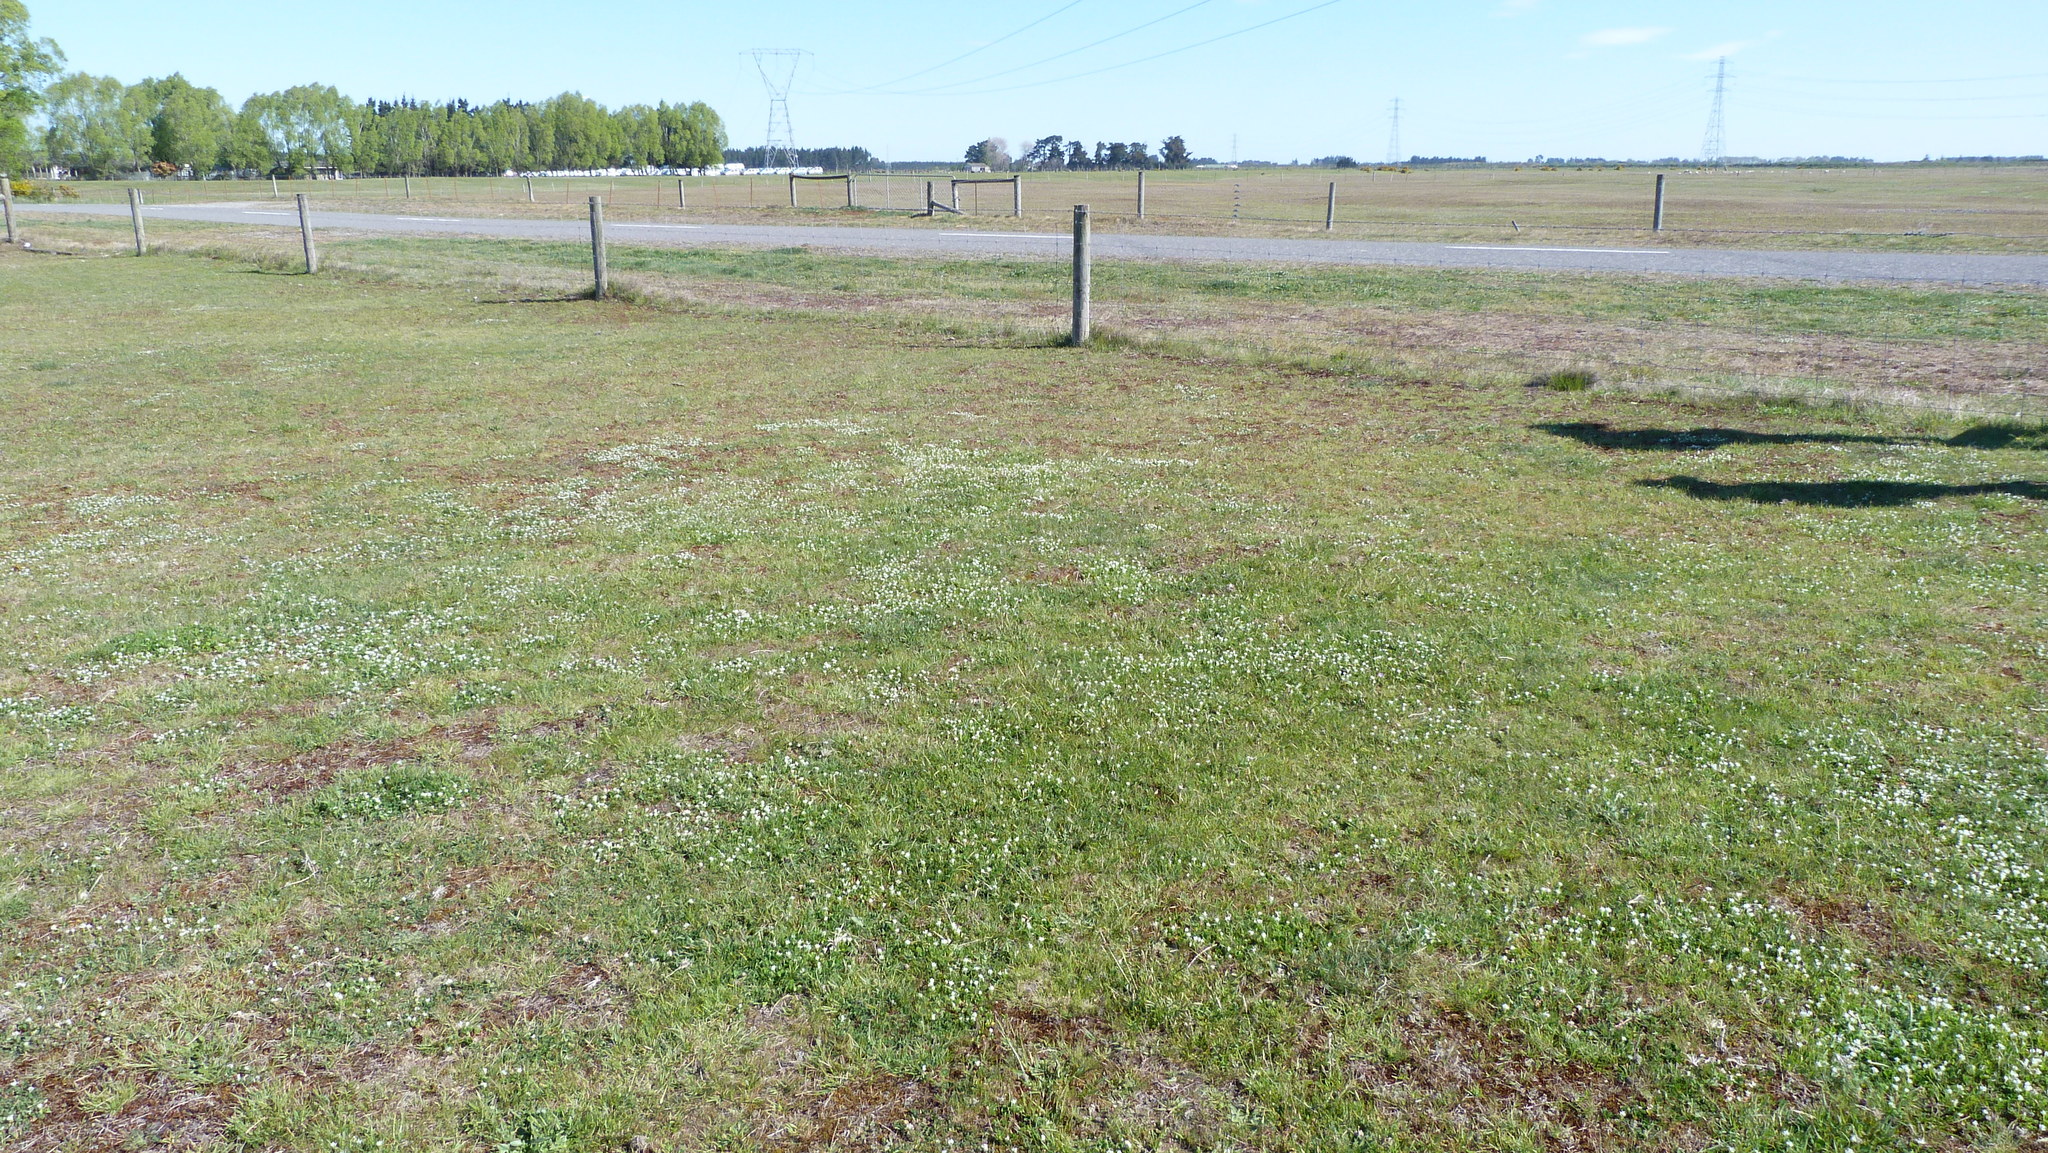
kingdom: Plantae
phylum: Tracheophyta
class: Magnoliopsida
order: Fabales
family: Fabaceae
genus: Trifolium
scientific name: Trifolium subterraneum
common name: Subterranean clover
